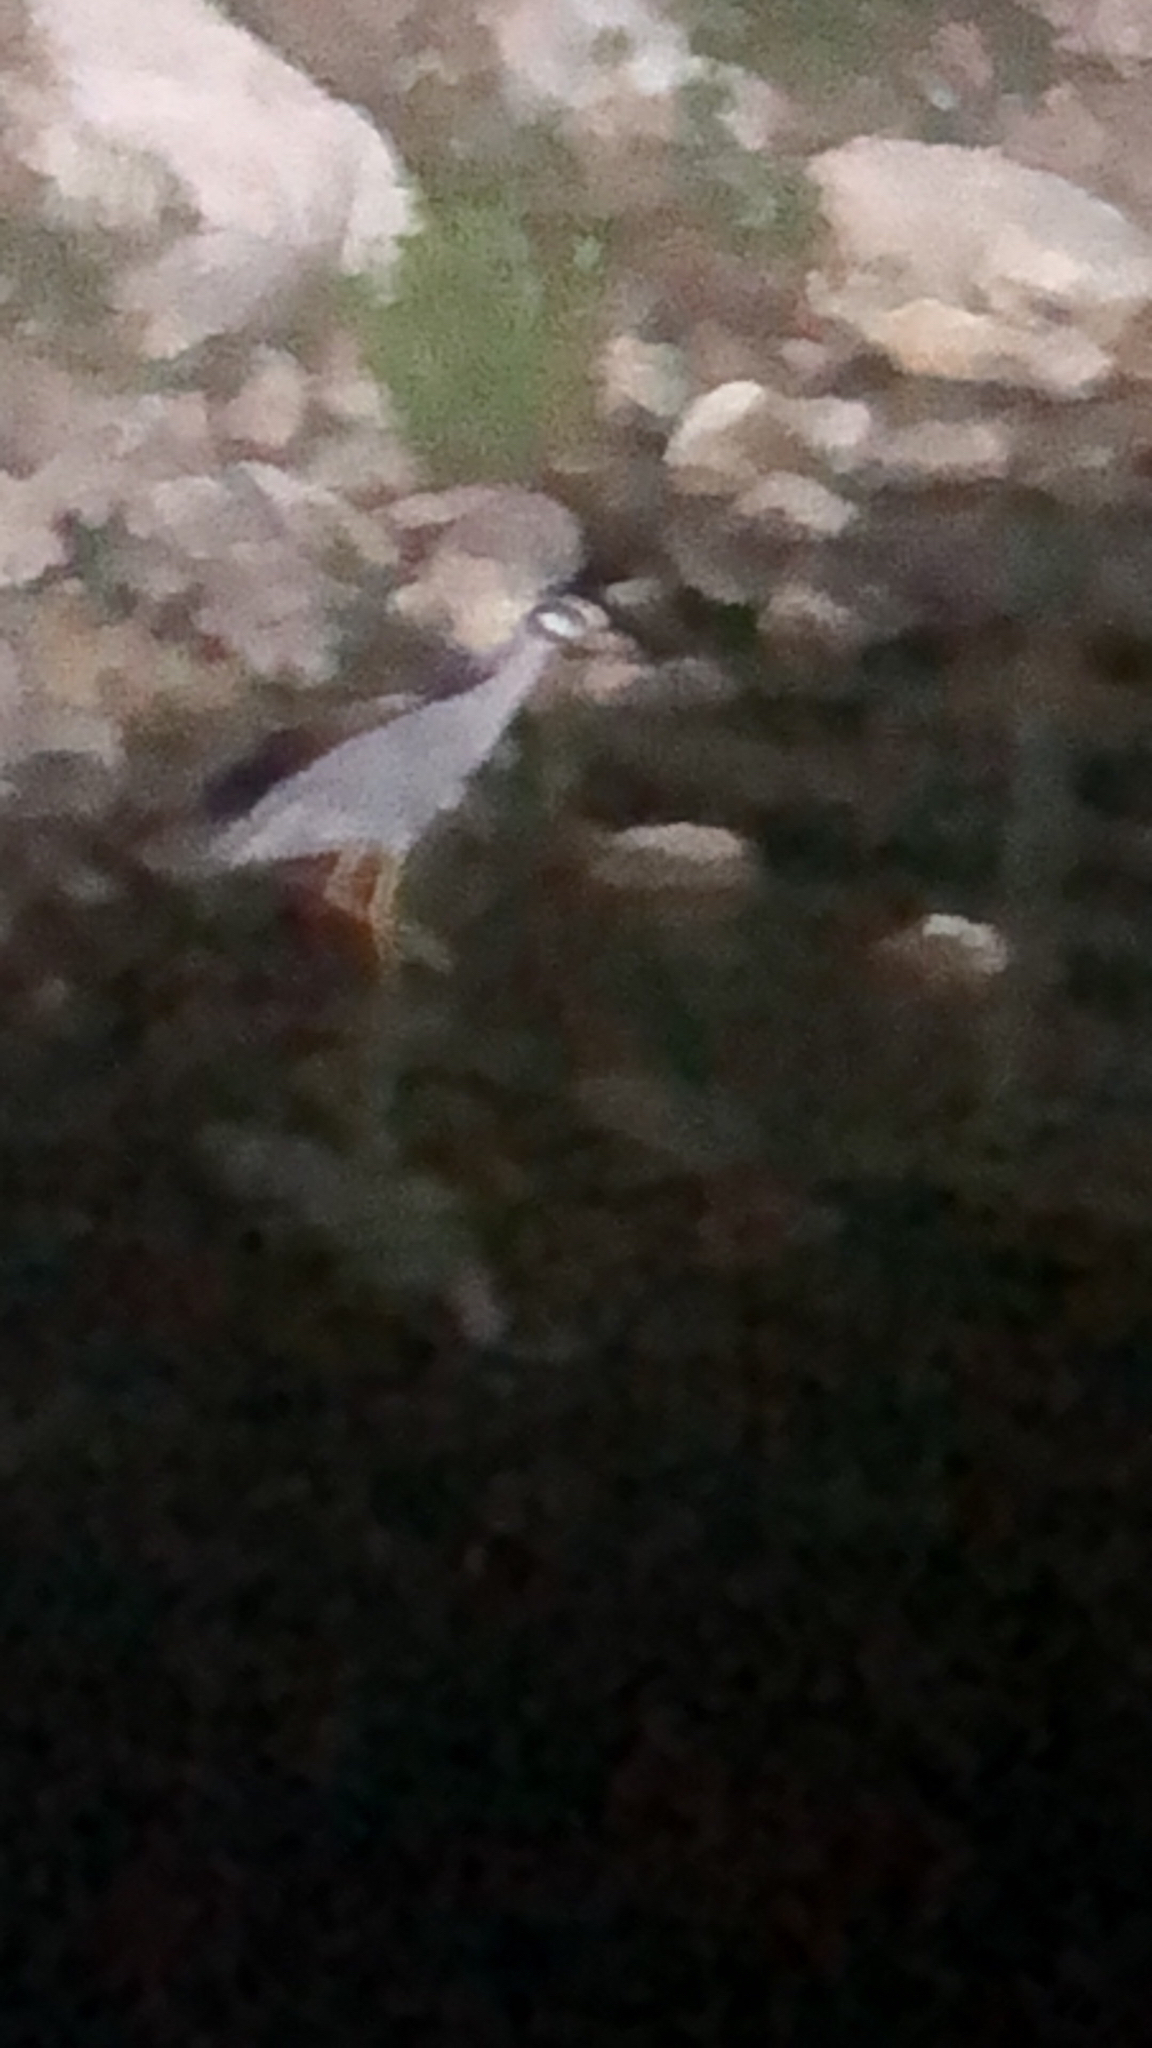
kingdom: Animalia
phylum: Chordata
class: Aves
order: Pelecaniformes
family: Ardeidae
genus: Nyctanassa
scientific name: Nyctanassa violacea
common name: Yellow-crowned night heron
